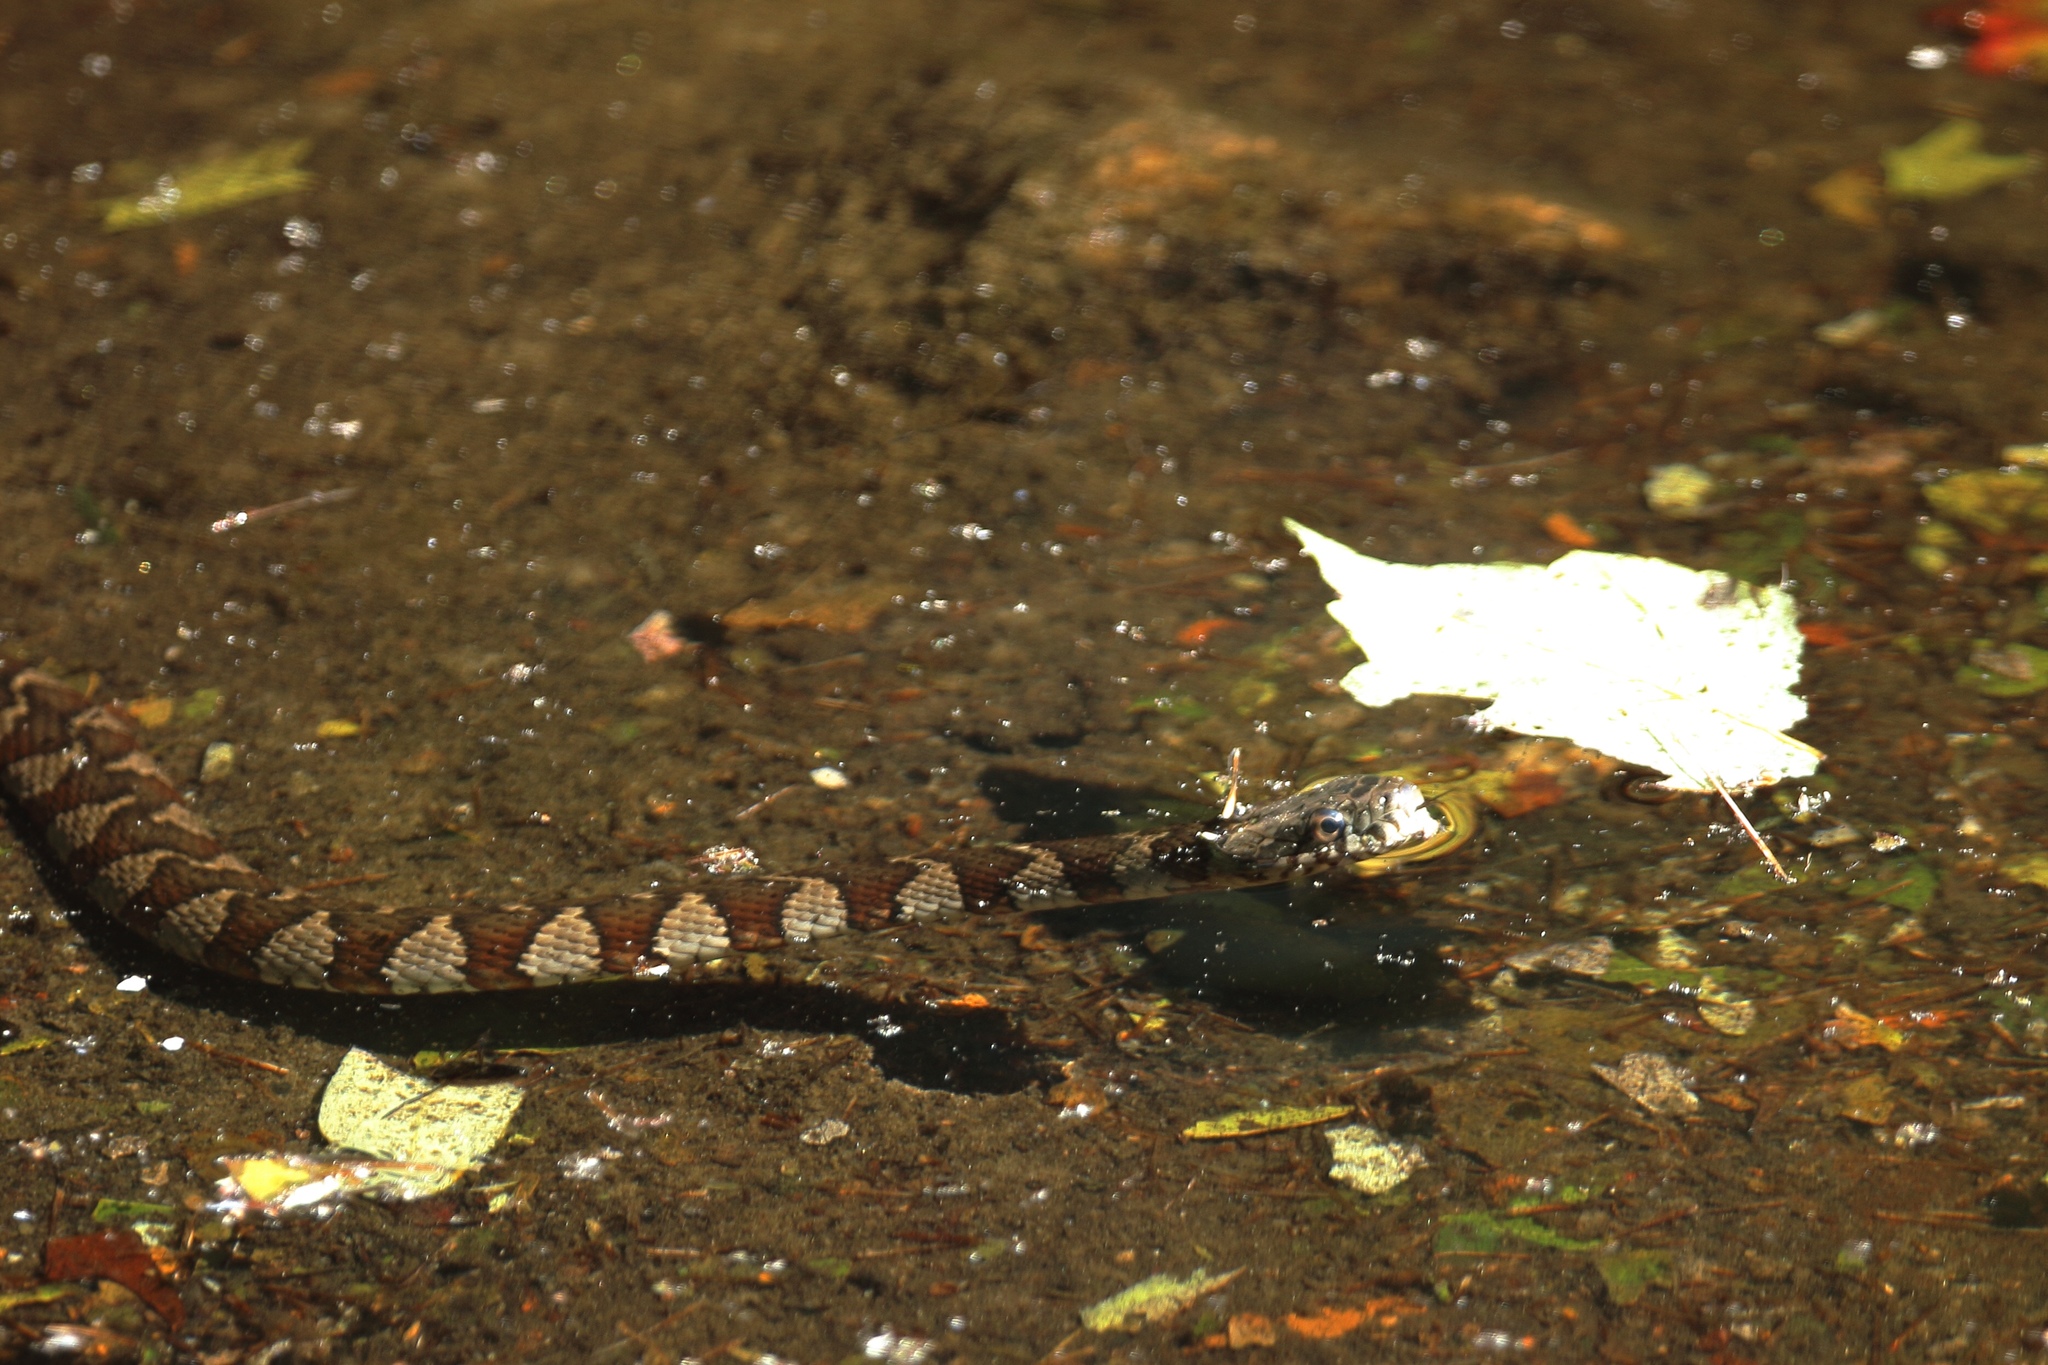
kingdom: Animalia
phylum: Chordata
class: Squamata
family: Colubridae
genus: Nerodia
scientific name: Nerodia sipedon
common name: Northern water snake
